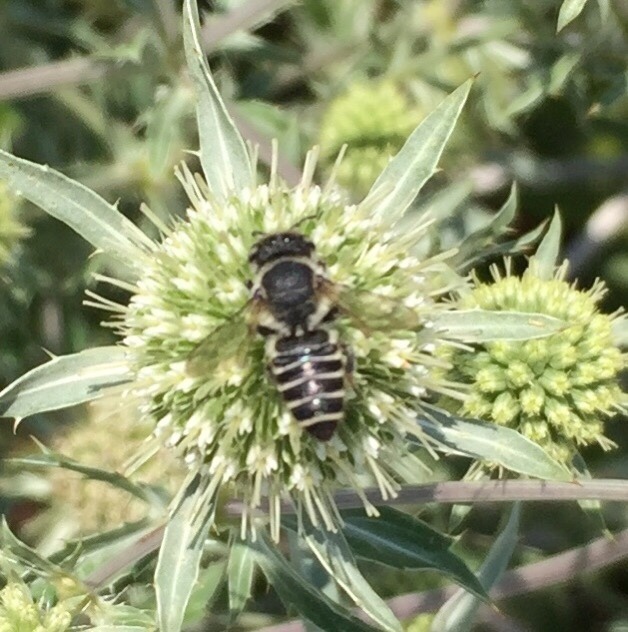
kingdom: Animalia
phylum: Arthropoda
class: Insecta
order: Hymenoptera
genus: Eutricharaea
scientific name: Eutricharaea
